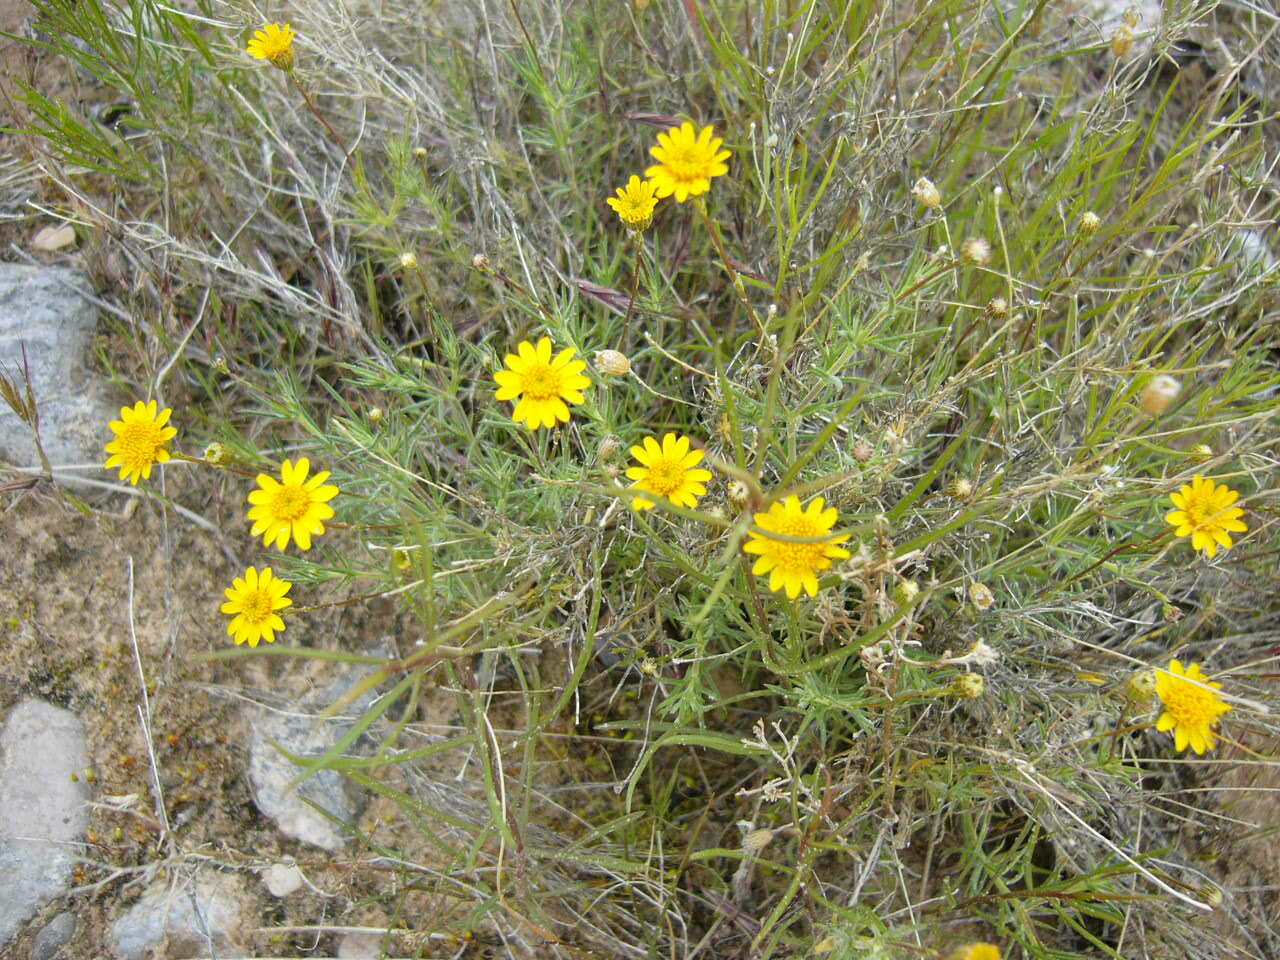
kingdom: Plantae
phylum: Tracheophyta
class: Magnoliopsida
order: Asterales
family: Asteraceae
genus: Thymophylla
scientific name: Thymophylla pentachaeta
